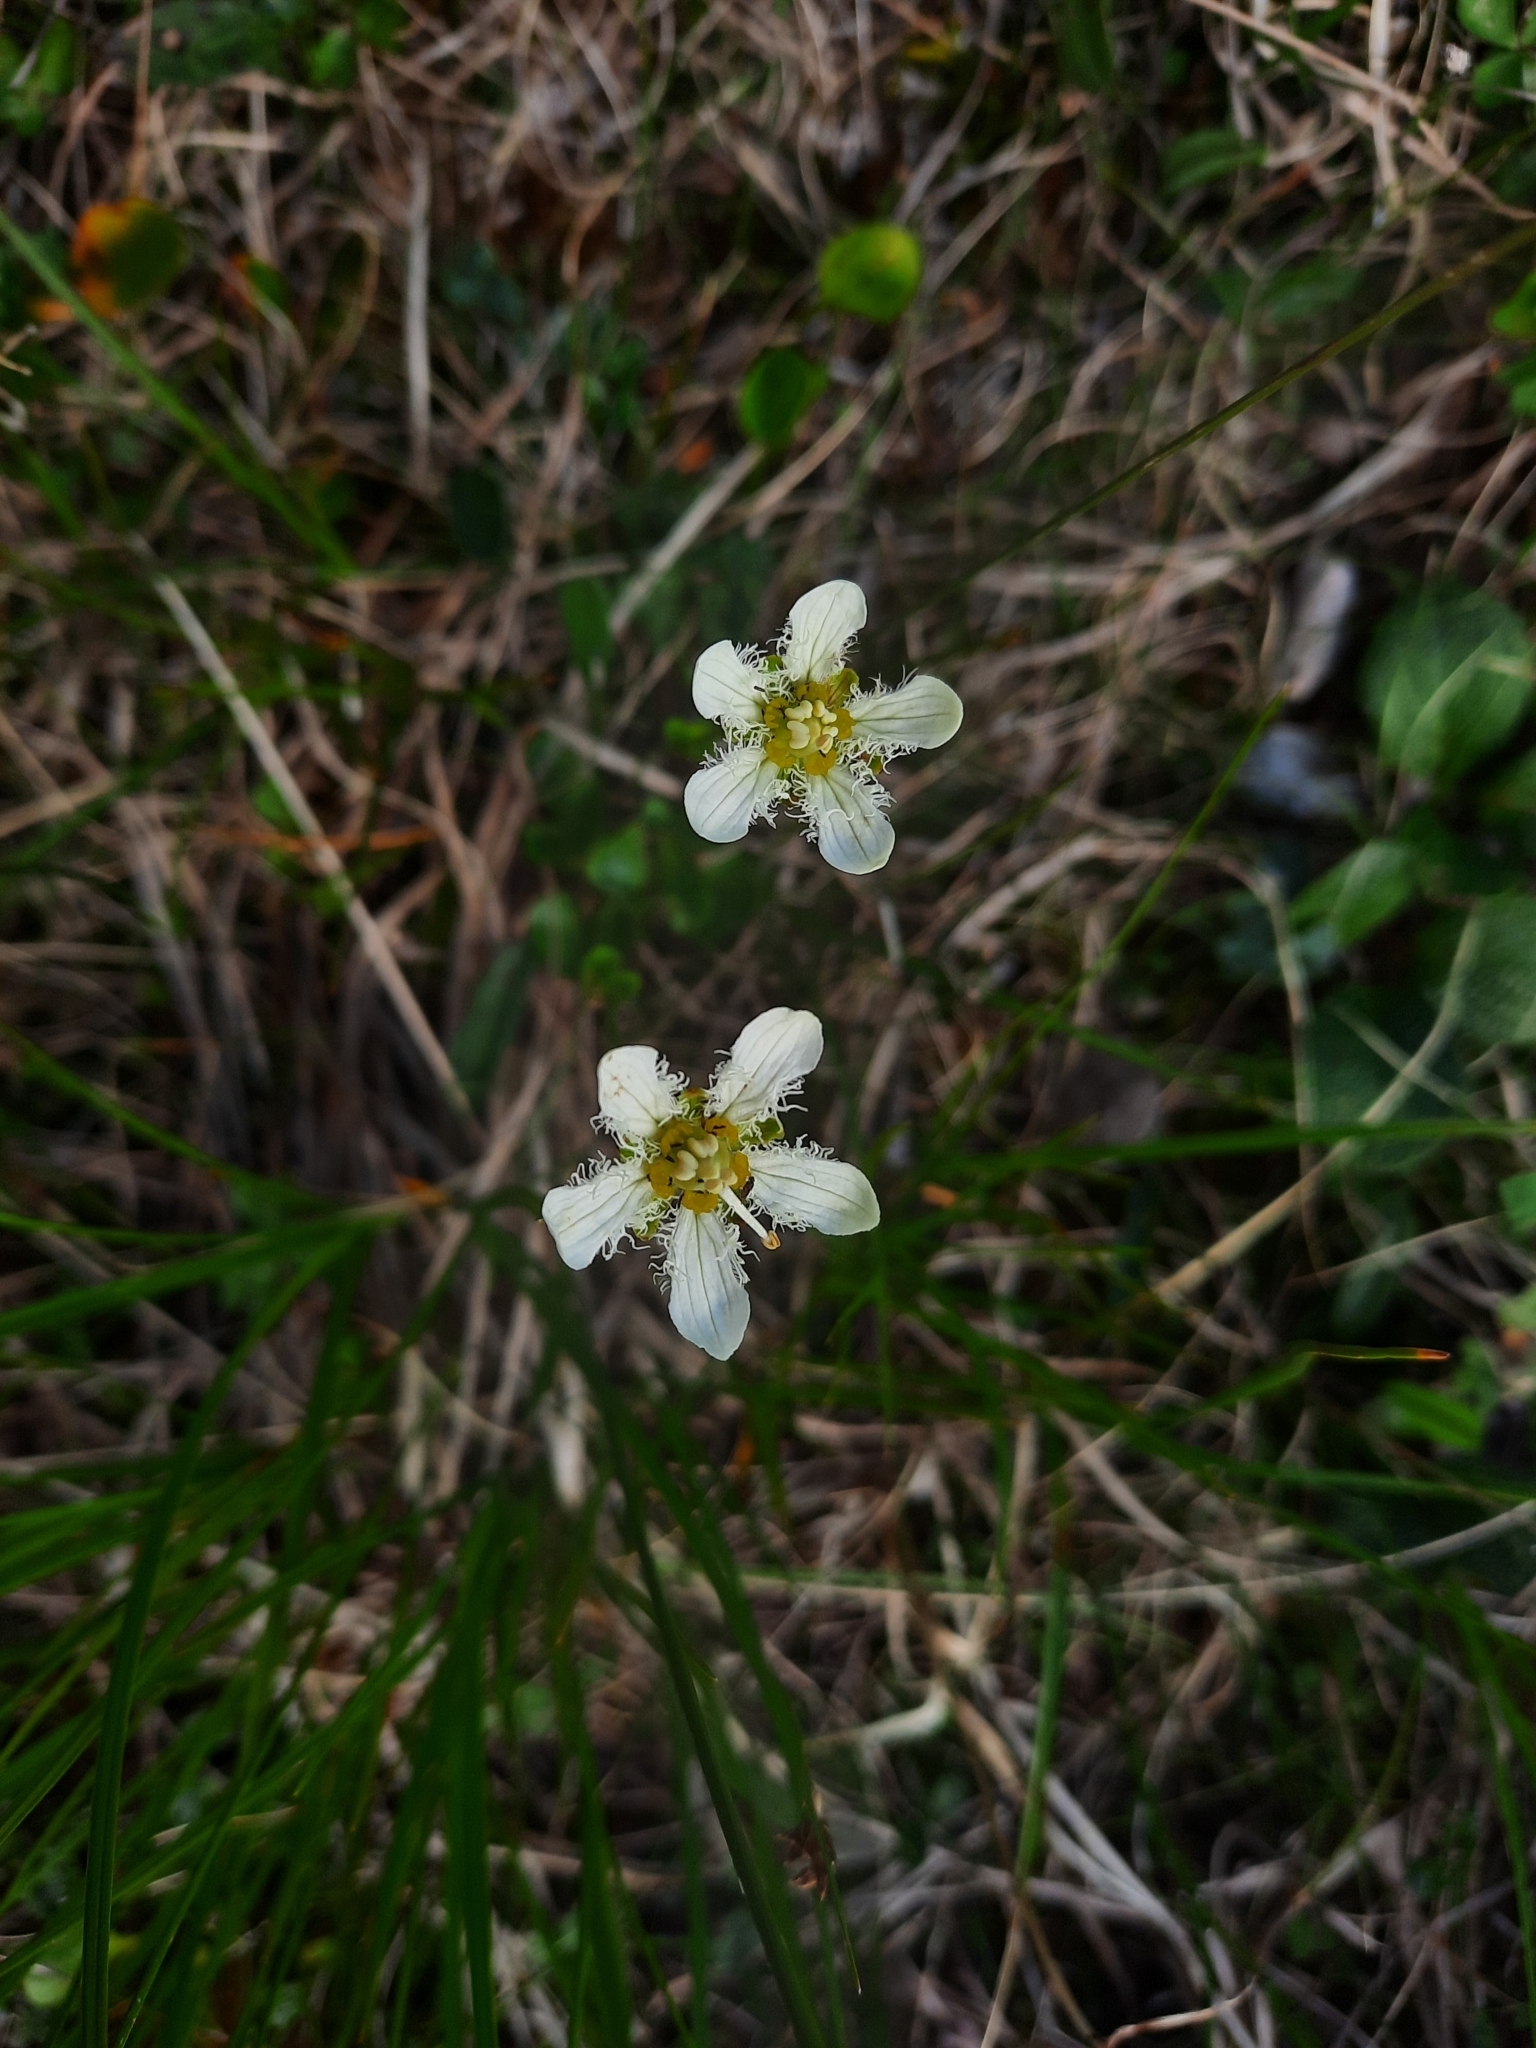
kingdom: Plantae
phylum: Tracheophyta
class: Magnoliopsida
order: Celastrales
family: Parnassiaceae
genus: Parnassia
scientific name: Parnassia fimbriata
